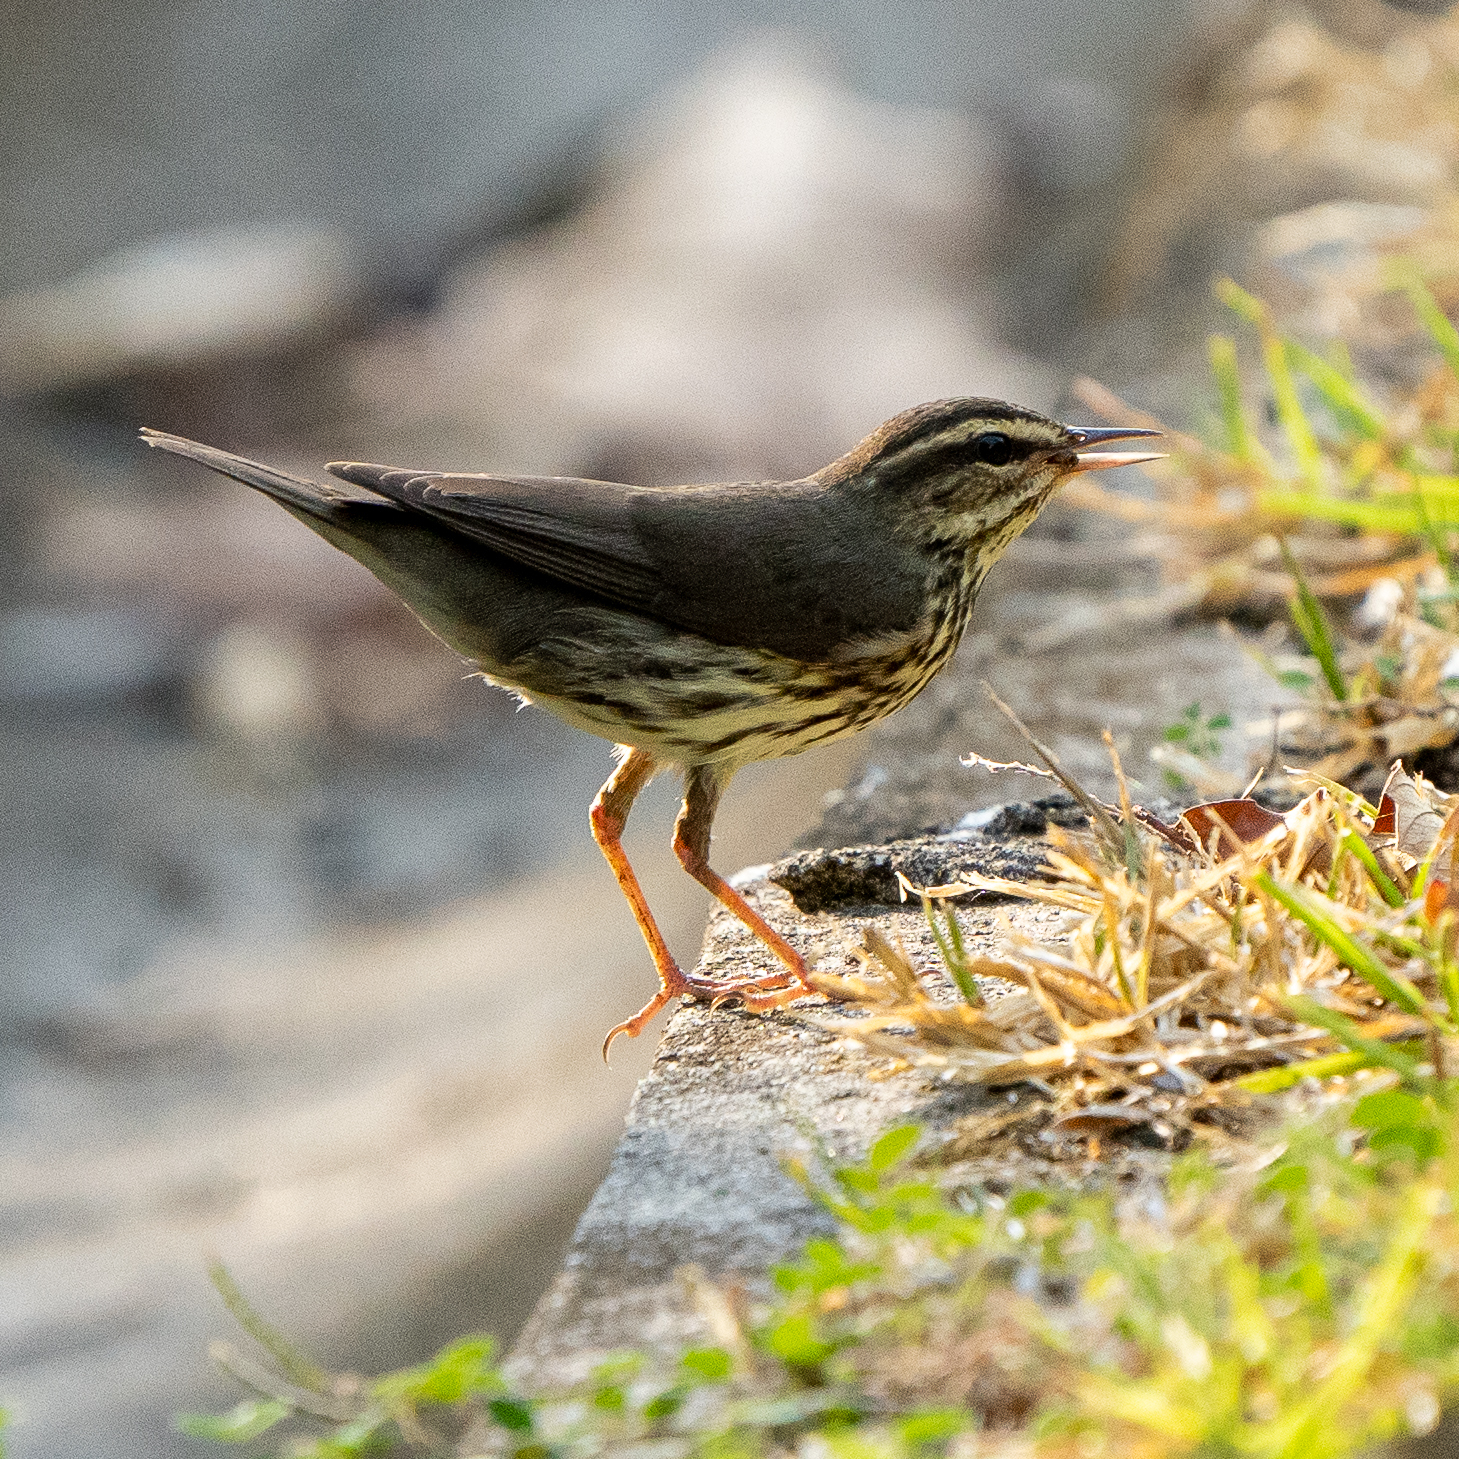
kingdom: Animalia
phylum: Chordata
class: Aves
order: Passeriformes
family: Parulidae
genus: Parkesia
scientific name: Parkesia noveboracensis
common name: Northern waterthrush
